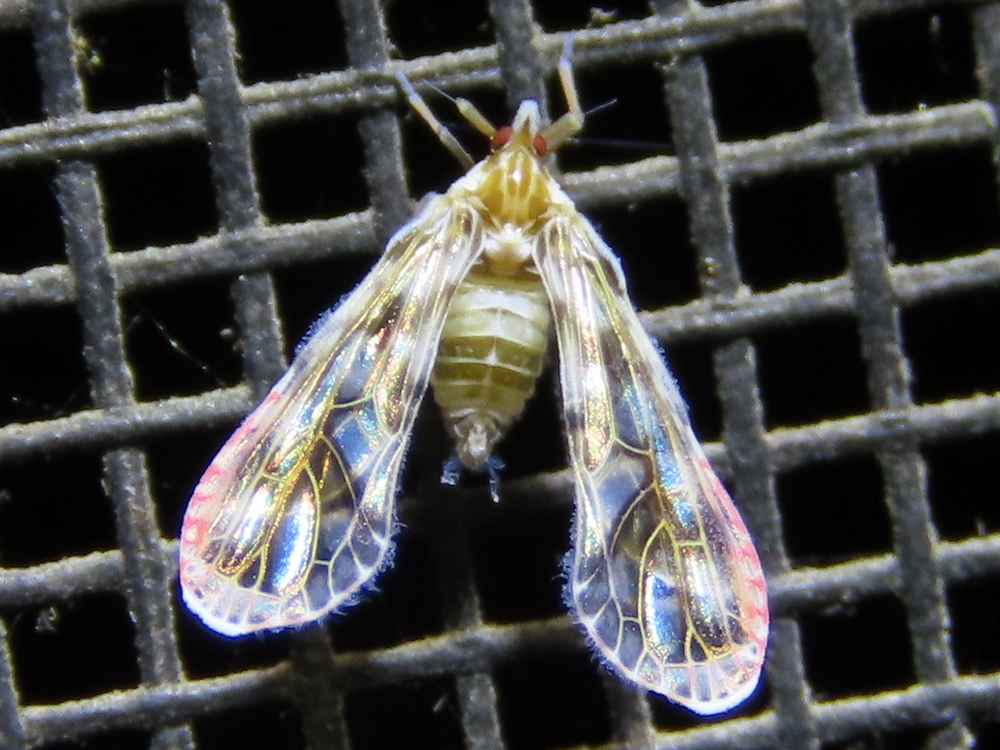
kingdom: Animalia
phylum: Arthropoda
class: Insecta
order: Hemiptera
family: Derbidae
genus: Anotia
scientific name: Anotia kirkaldyi
